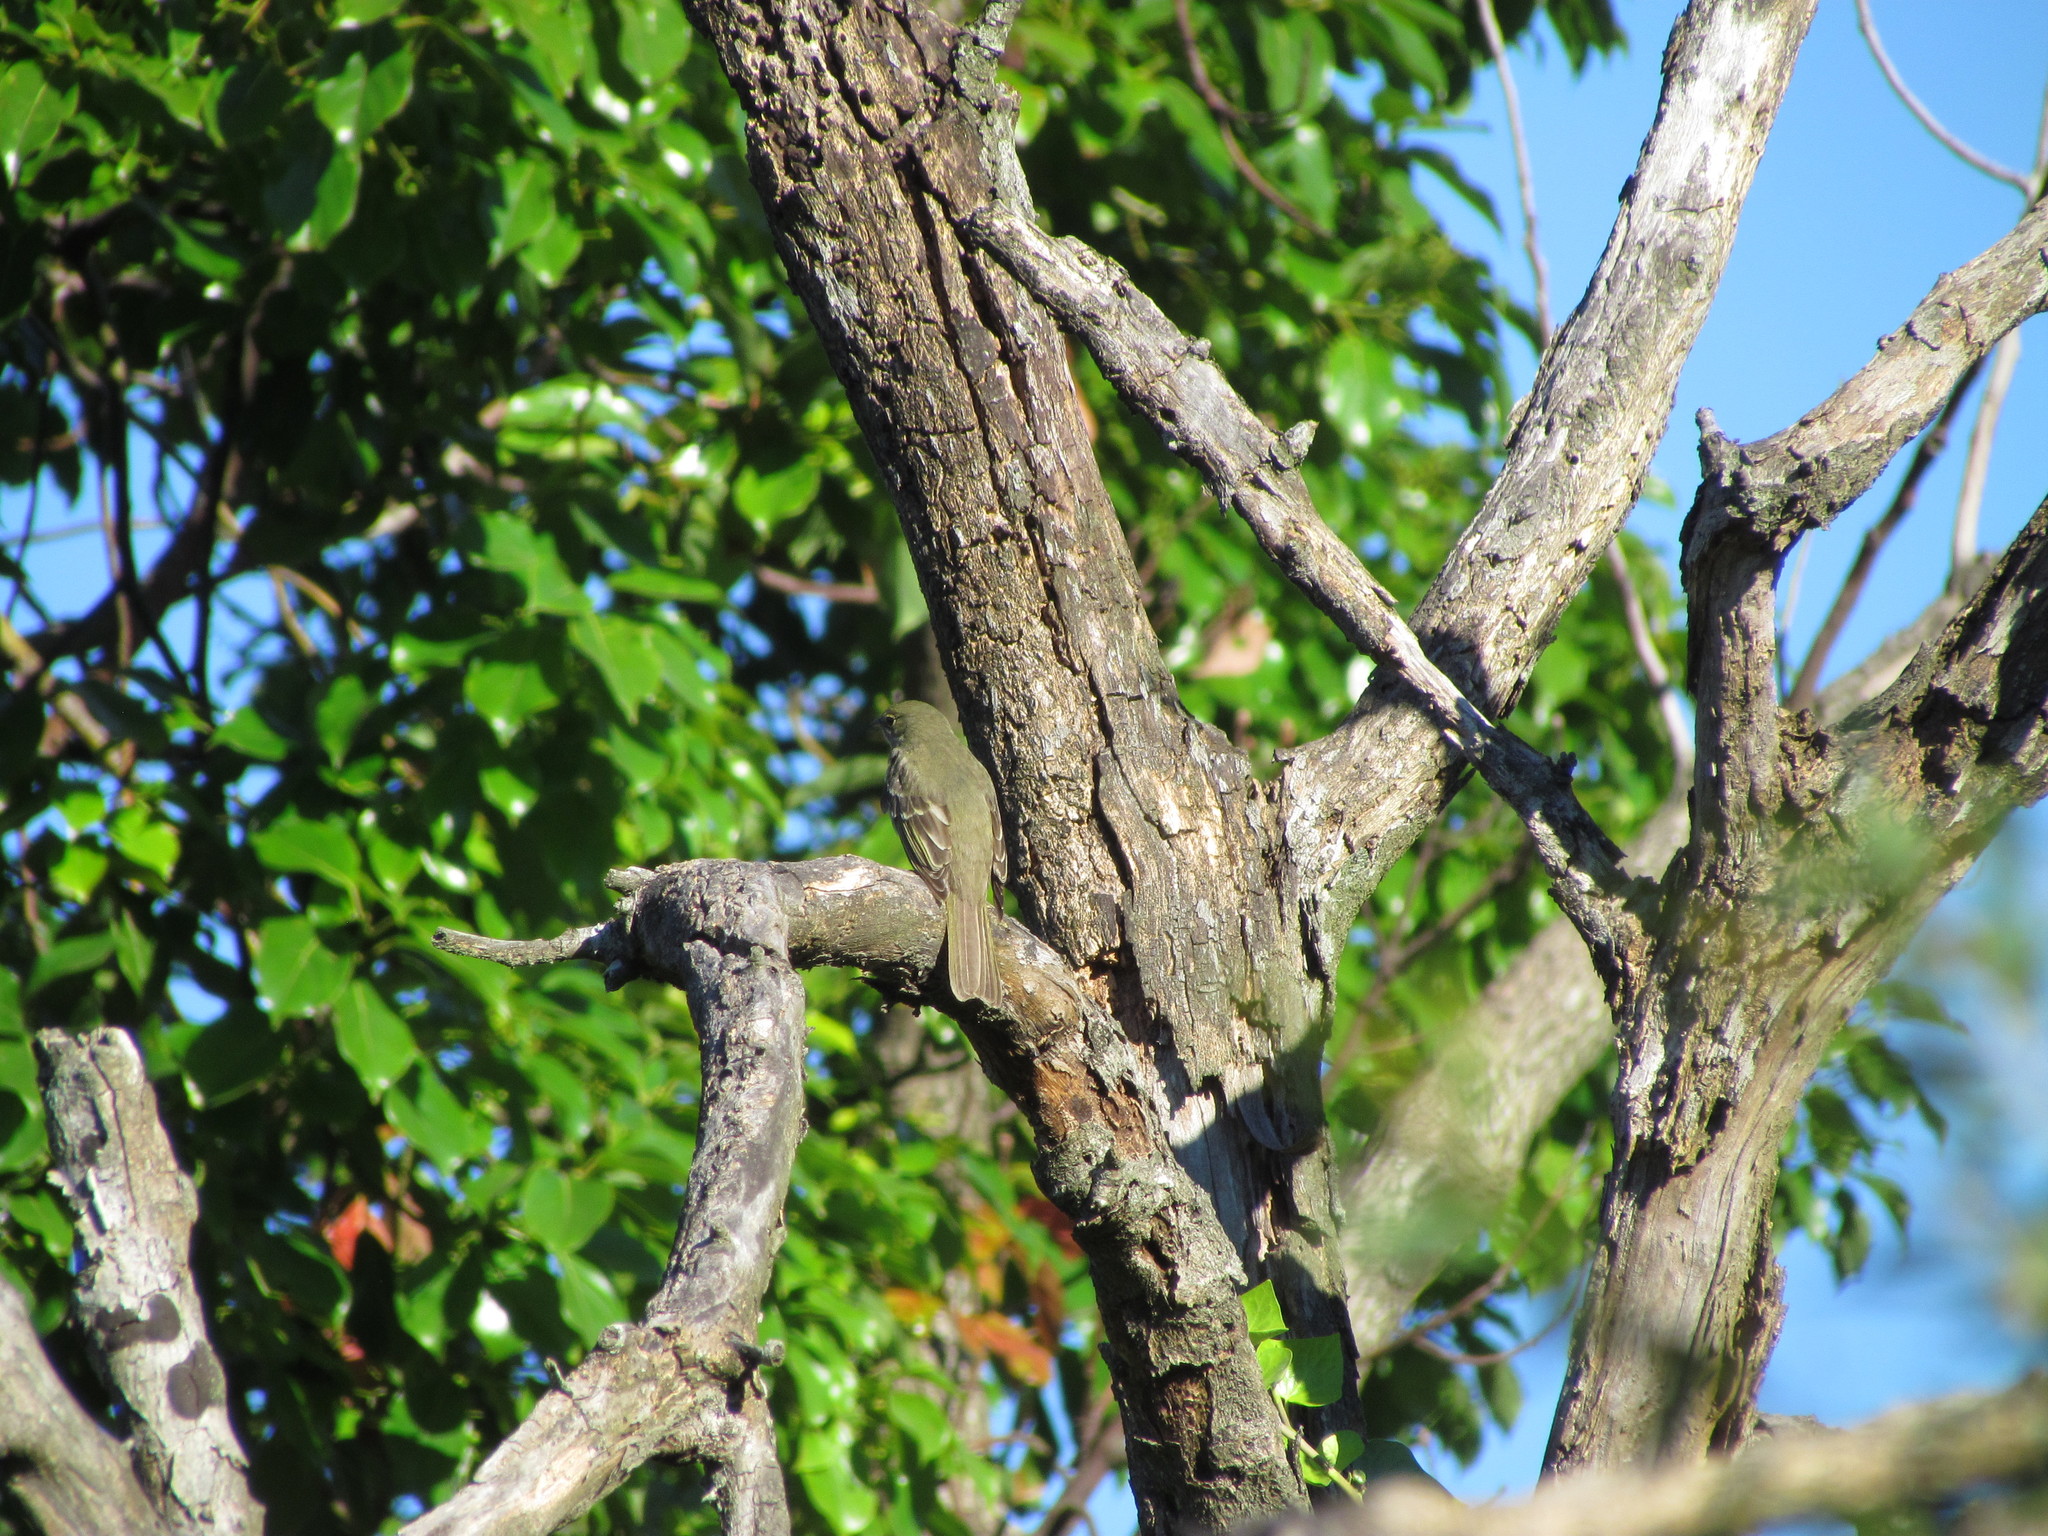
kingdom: Animalia
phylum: Chordata
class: Aves
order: Passeriformes
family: Tyrannidae
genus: Elaenia
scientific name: Elaenia mesoleuca
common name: Olivaceous elaenia
